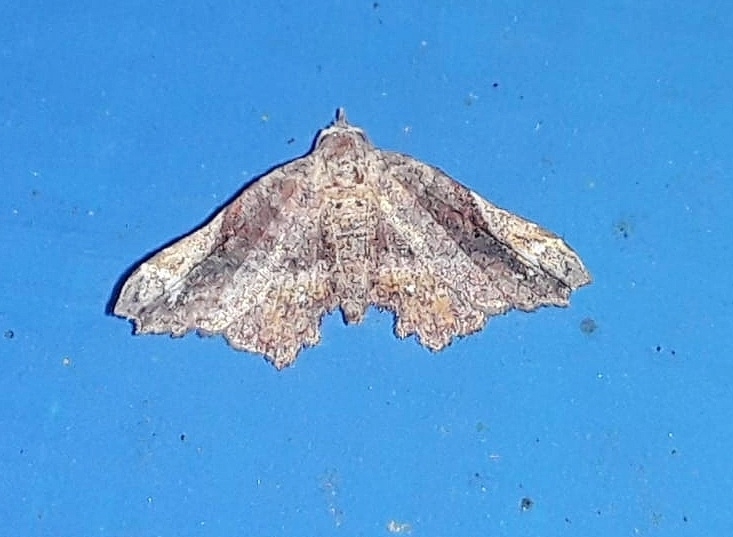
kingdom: Animalia
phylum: Arthropoda
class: Insecta
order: Lepidoptera
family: Erebidae
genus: Hypertrocta
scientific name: Hypertrocta posticalis
